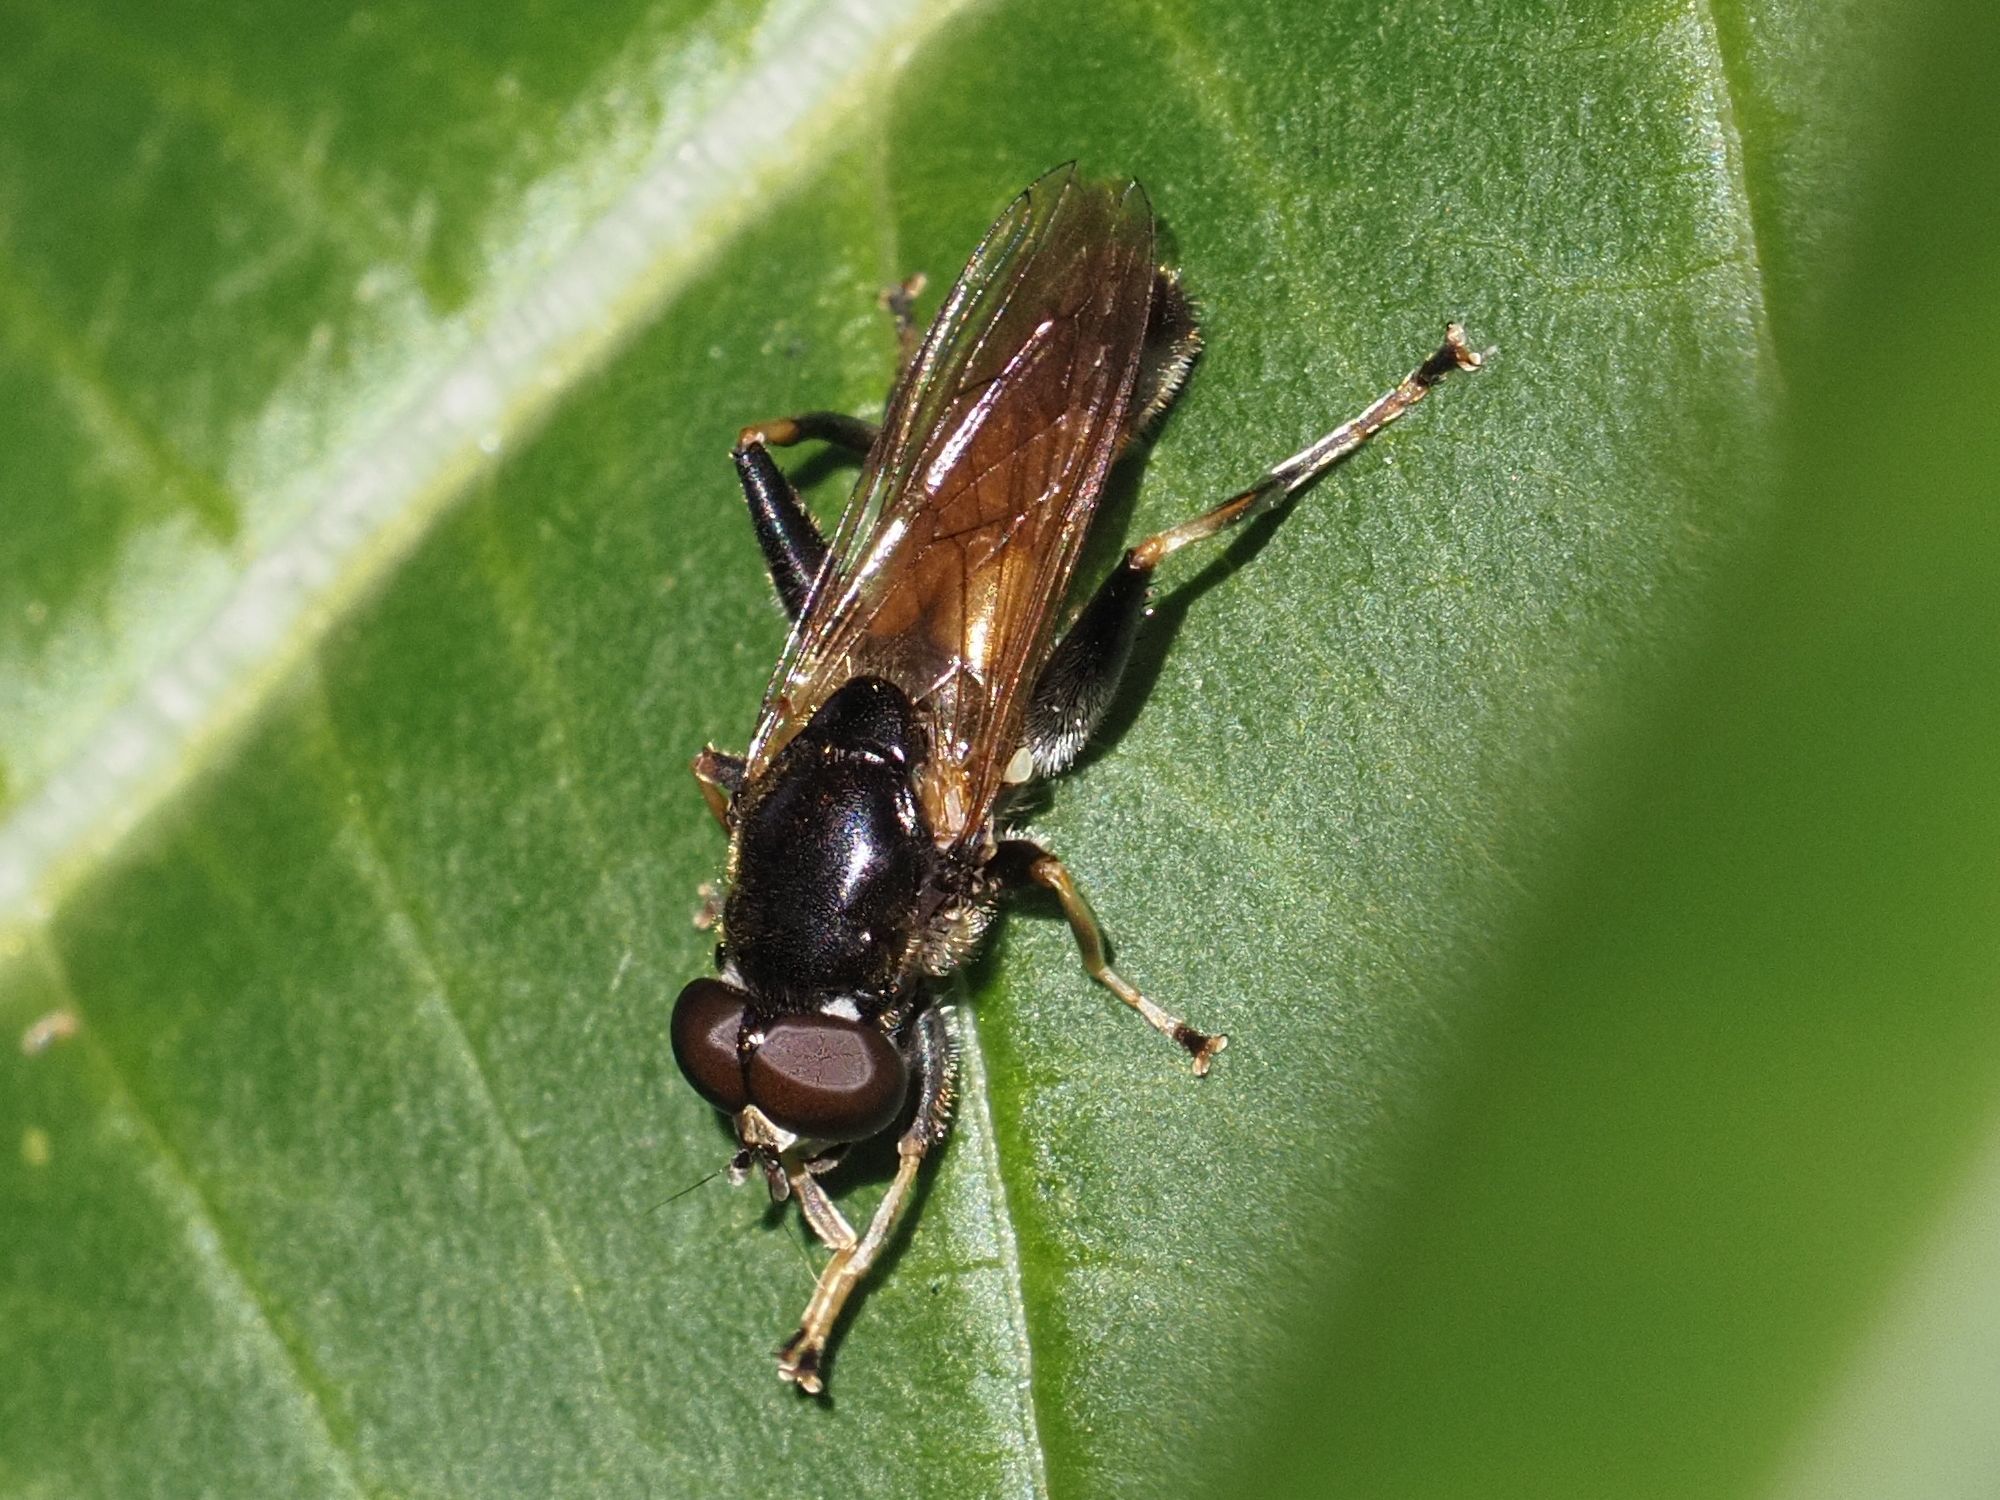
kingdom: Animalia
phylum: Arthropoda
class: Insecta
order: Diptera
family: Syrphidae
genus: Xylota
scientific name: Xylota segnis
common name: Brown-toed forest fly
